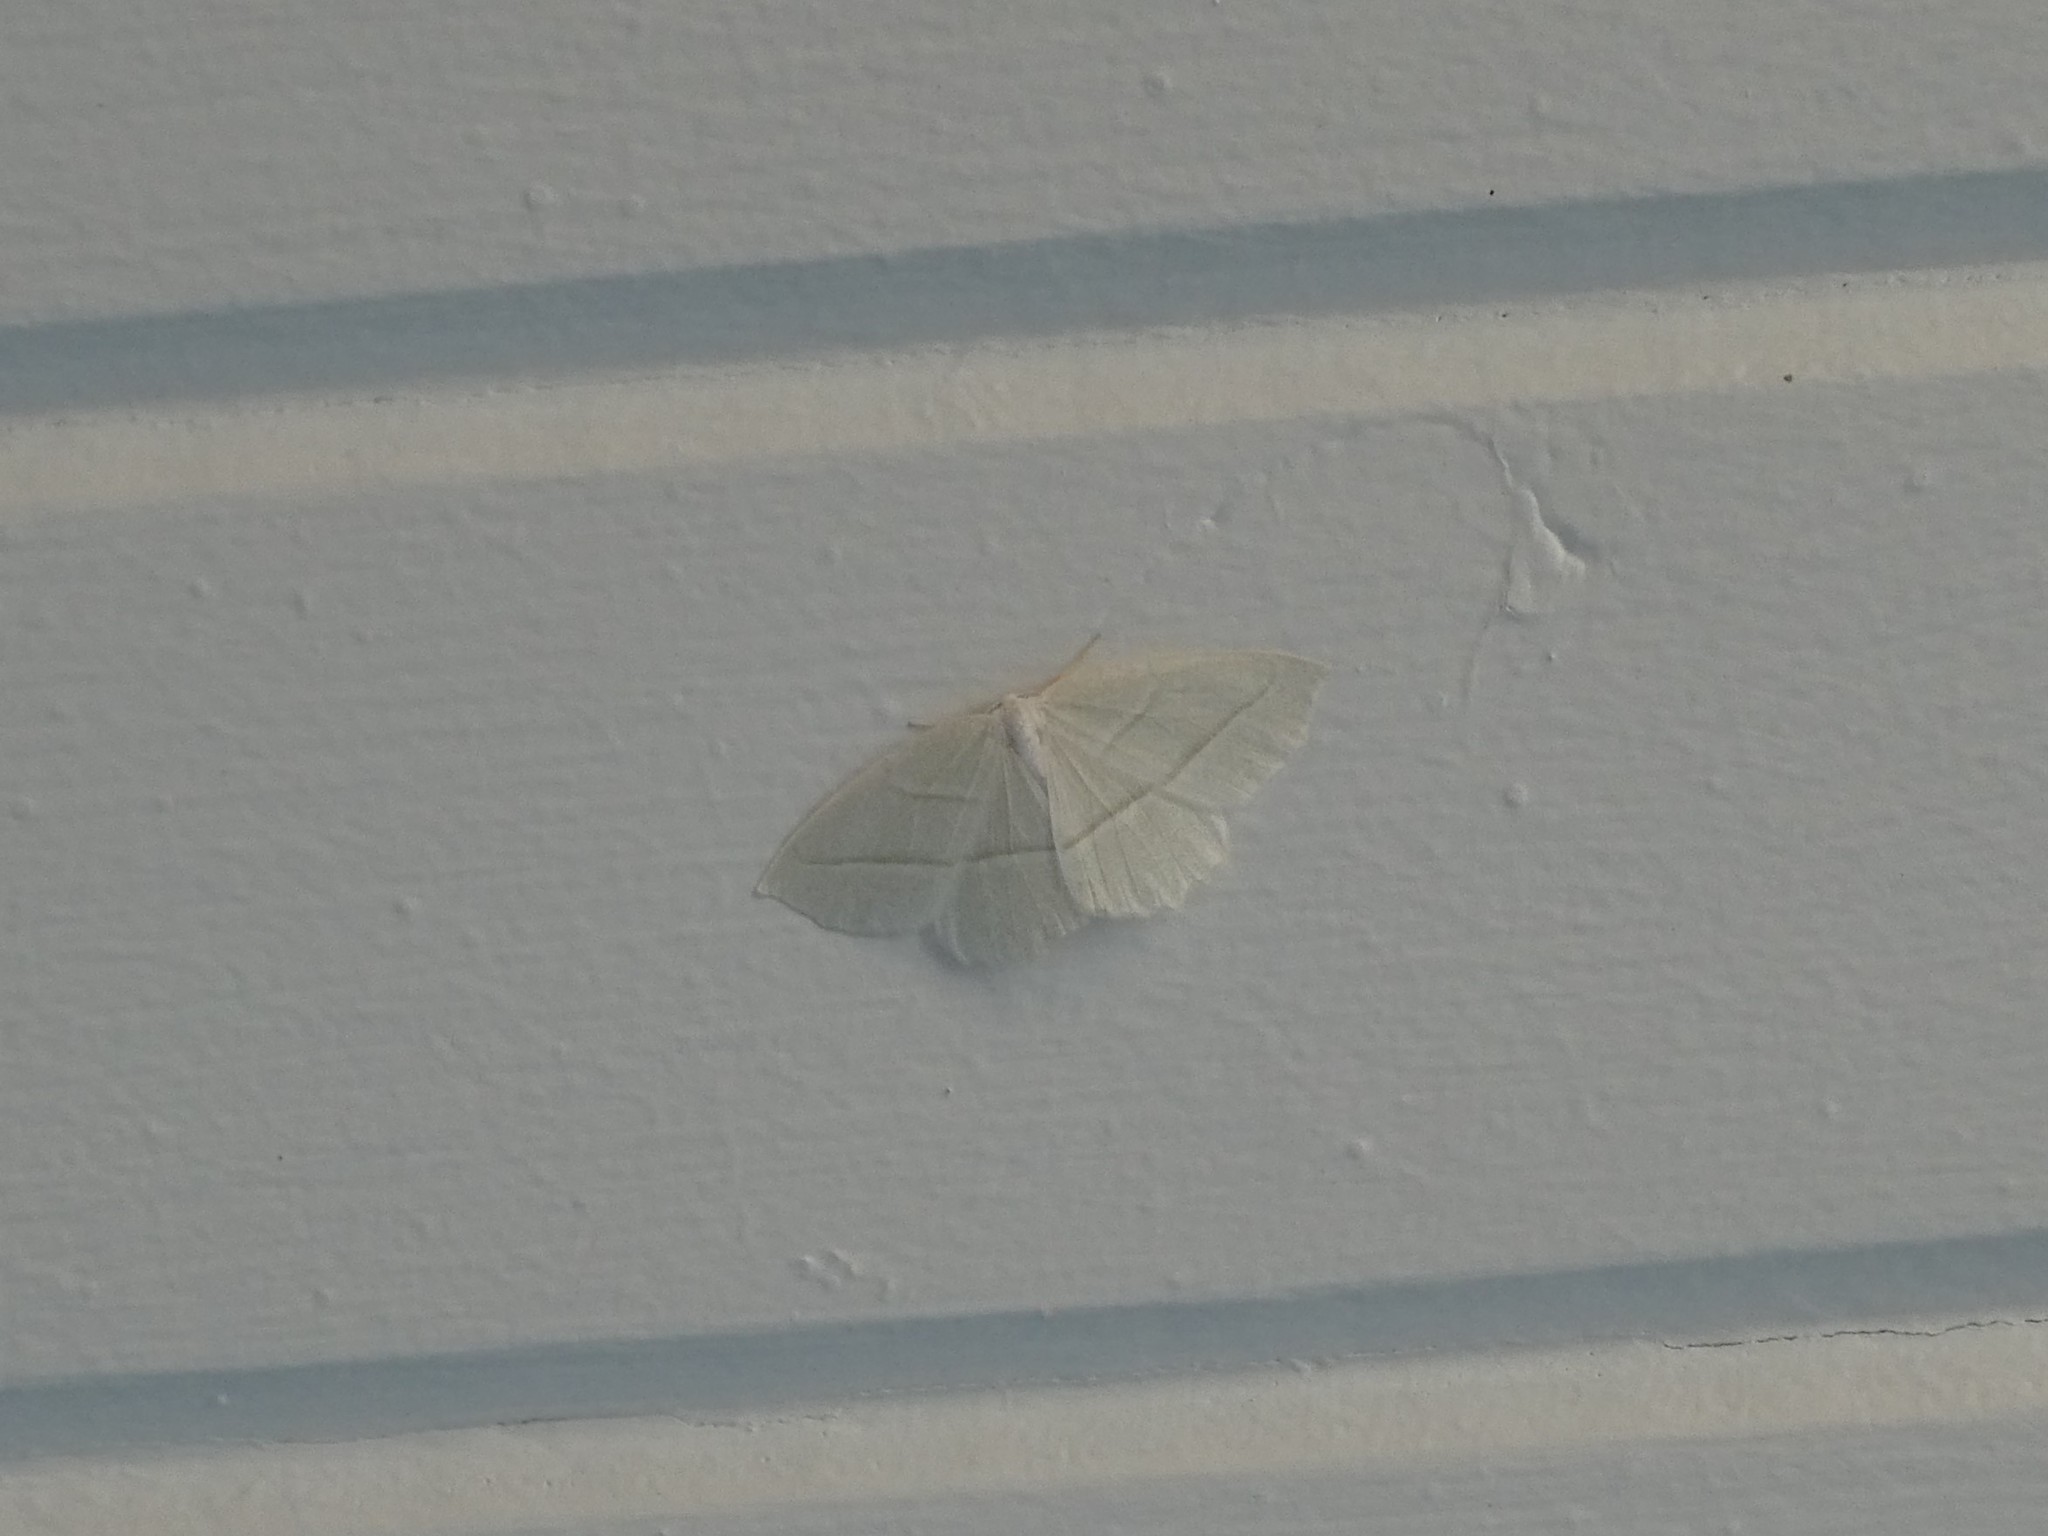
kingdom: Animalia
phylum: Arthropoda
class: Insecta
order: Lepidoptera
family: Geometridae
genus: Campaea
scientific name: Campaea perlata
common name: Fringed looper
